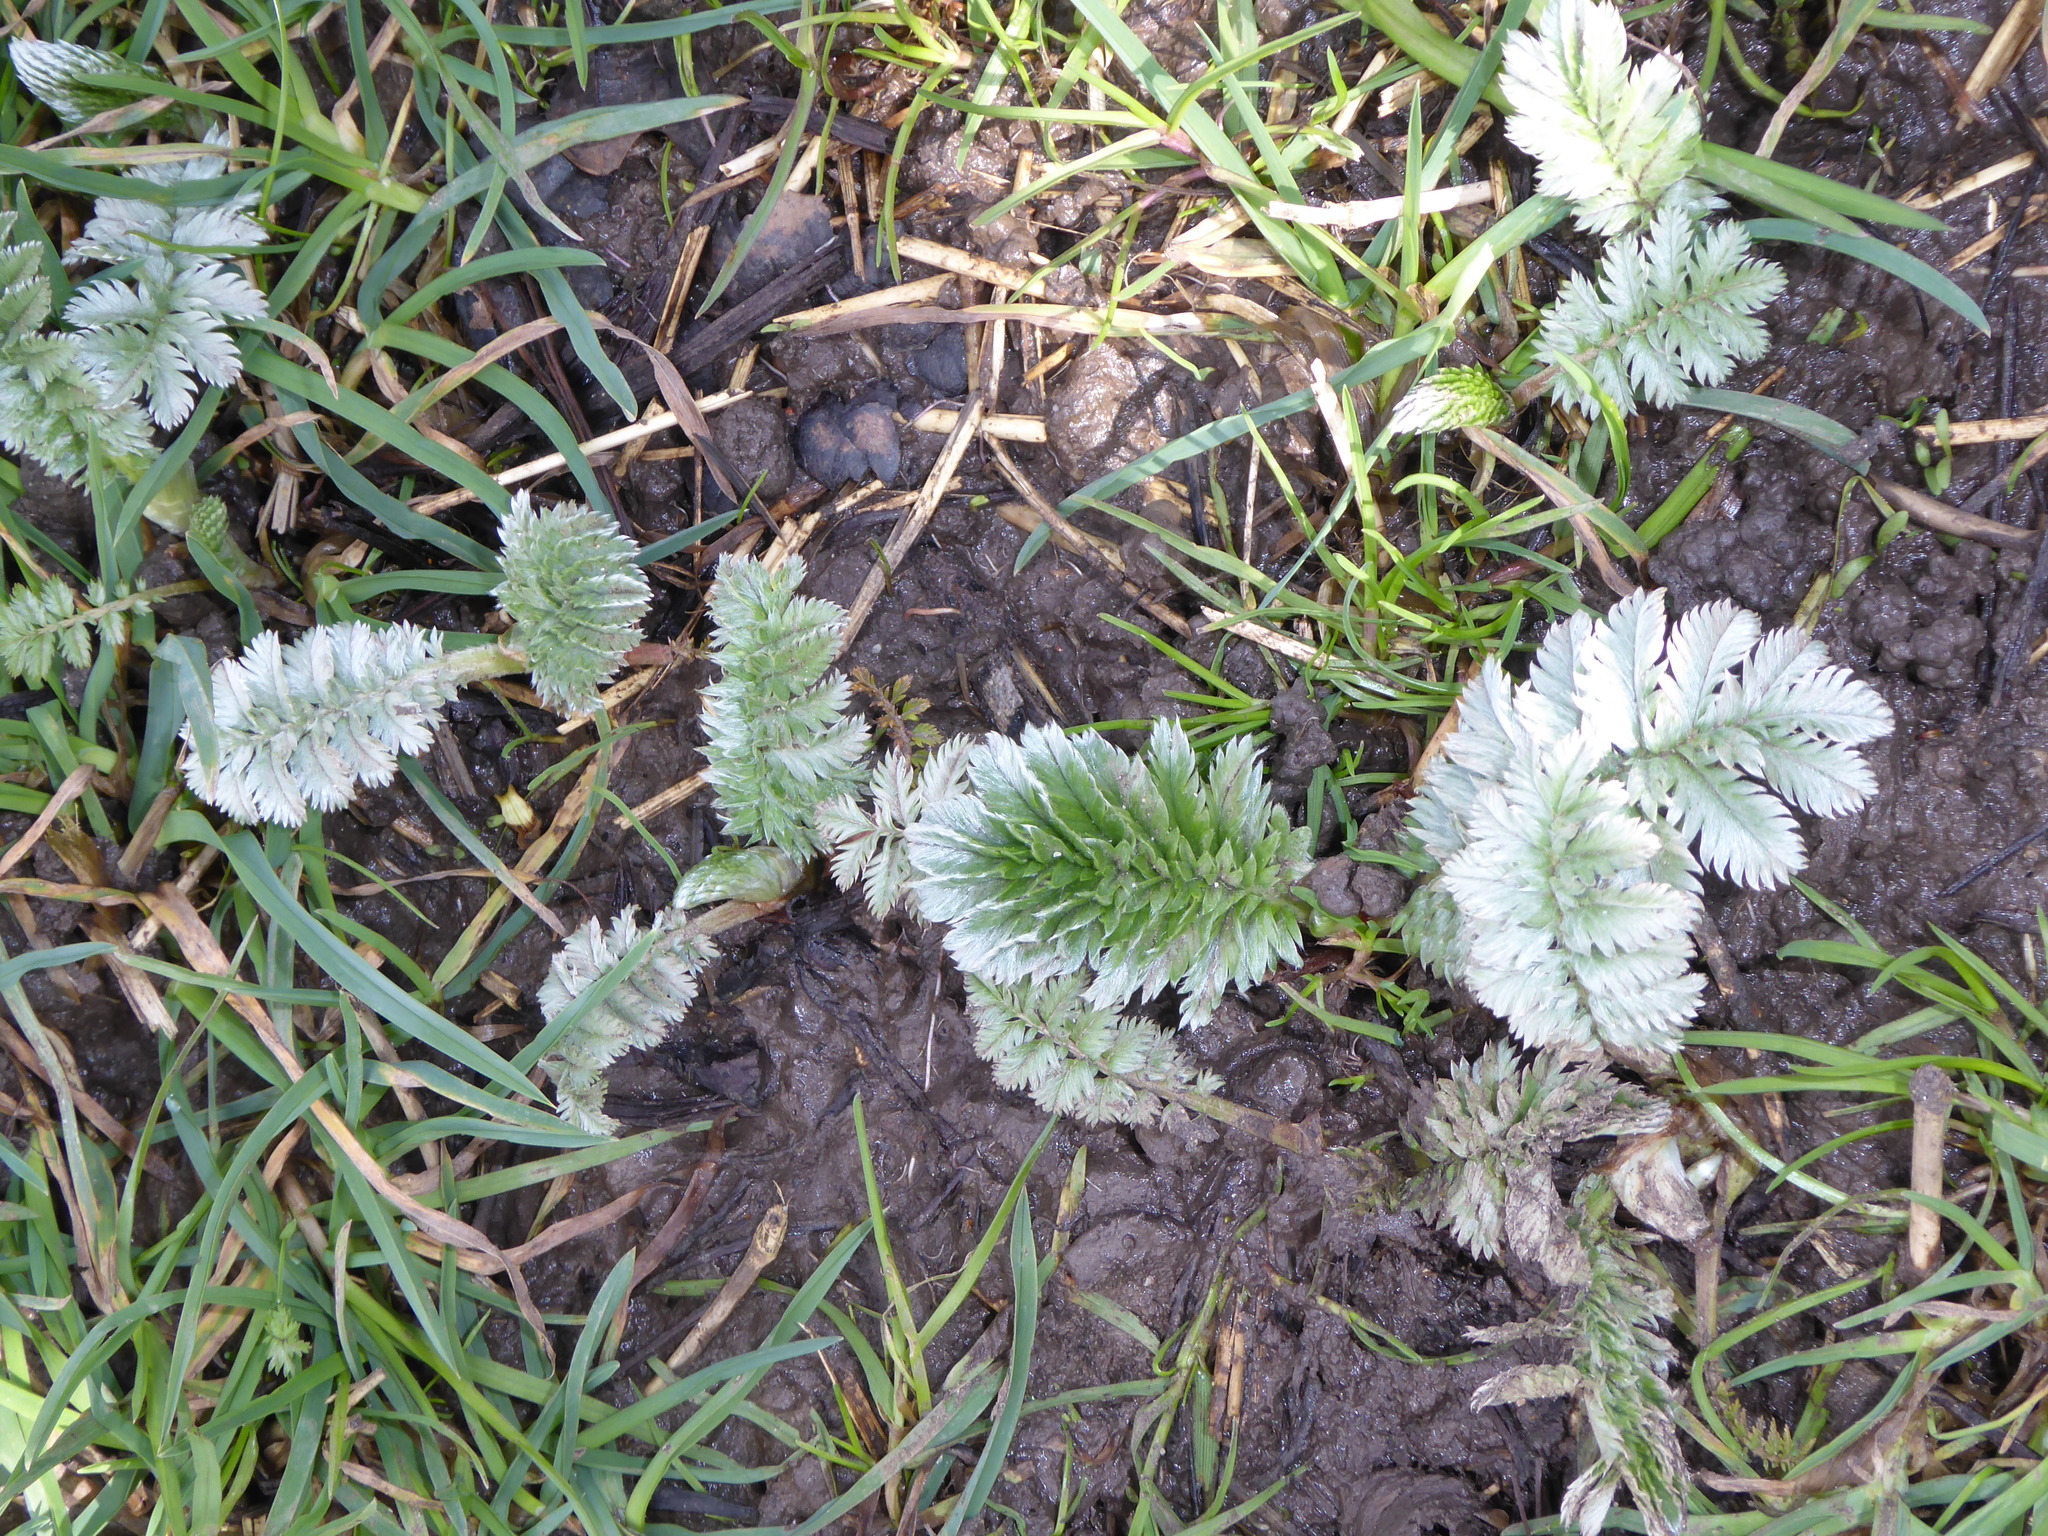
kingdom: Plantae
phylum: Tracheophyta
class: Magnoliopsida
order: Rosales
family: Rosaceae
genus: Argentina
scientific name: Argentina anserina
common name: Common silverweed
